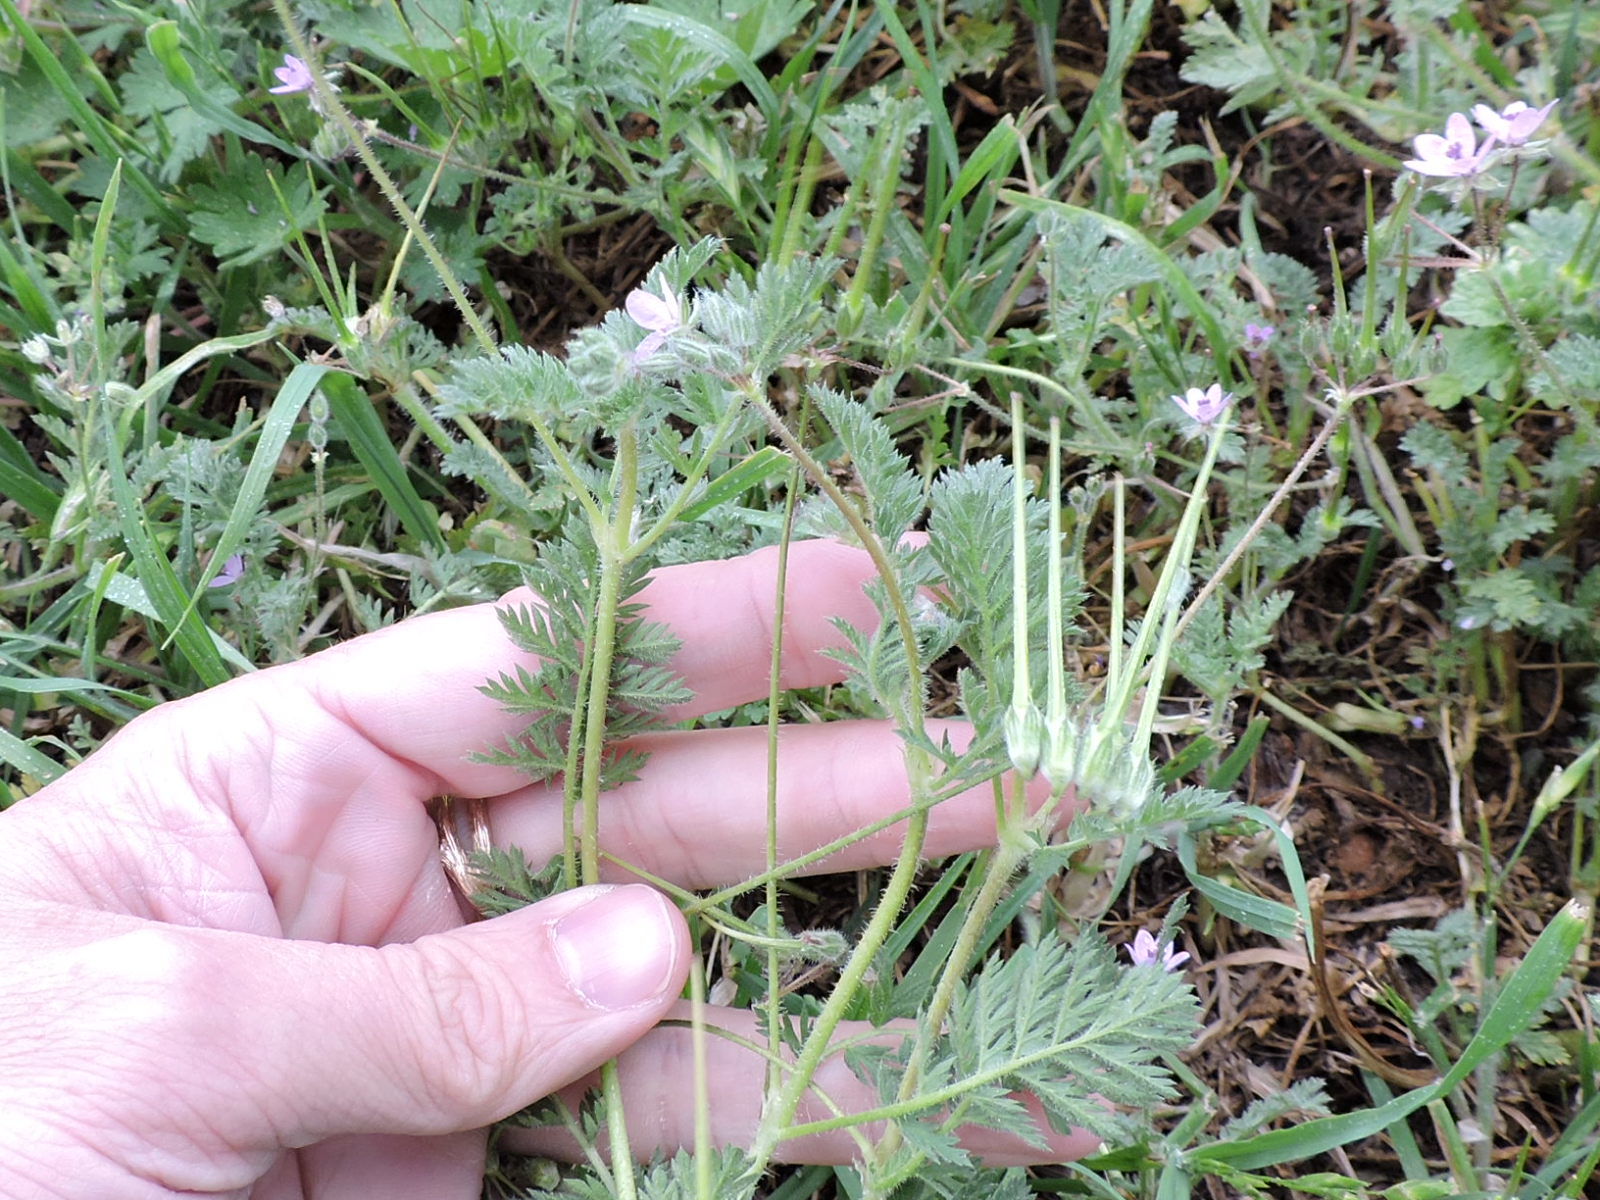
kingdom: Plantae
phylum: Tracheophyta
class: Magnoliopsida
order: Geraniales
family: Geraniaceae
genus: Erodium
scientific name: Erodium cicutarium
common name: Common stork's-bill
